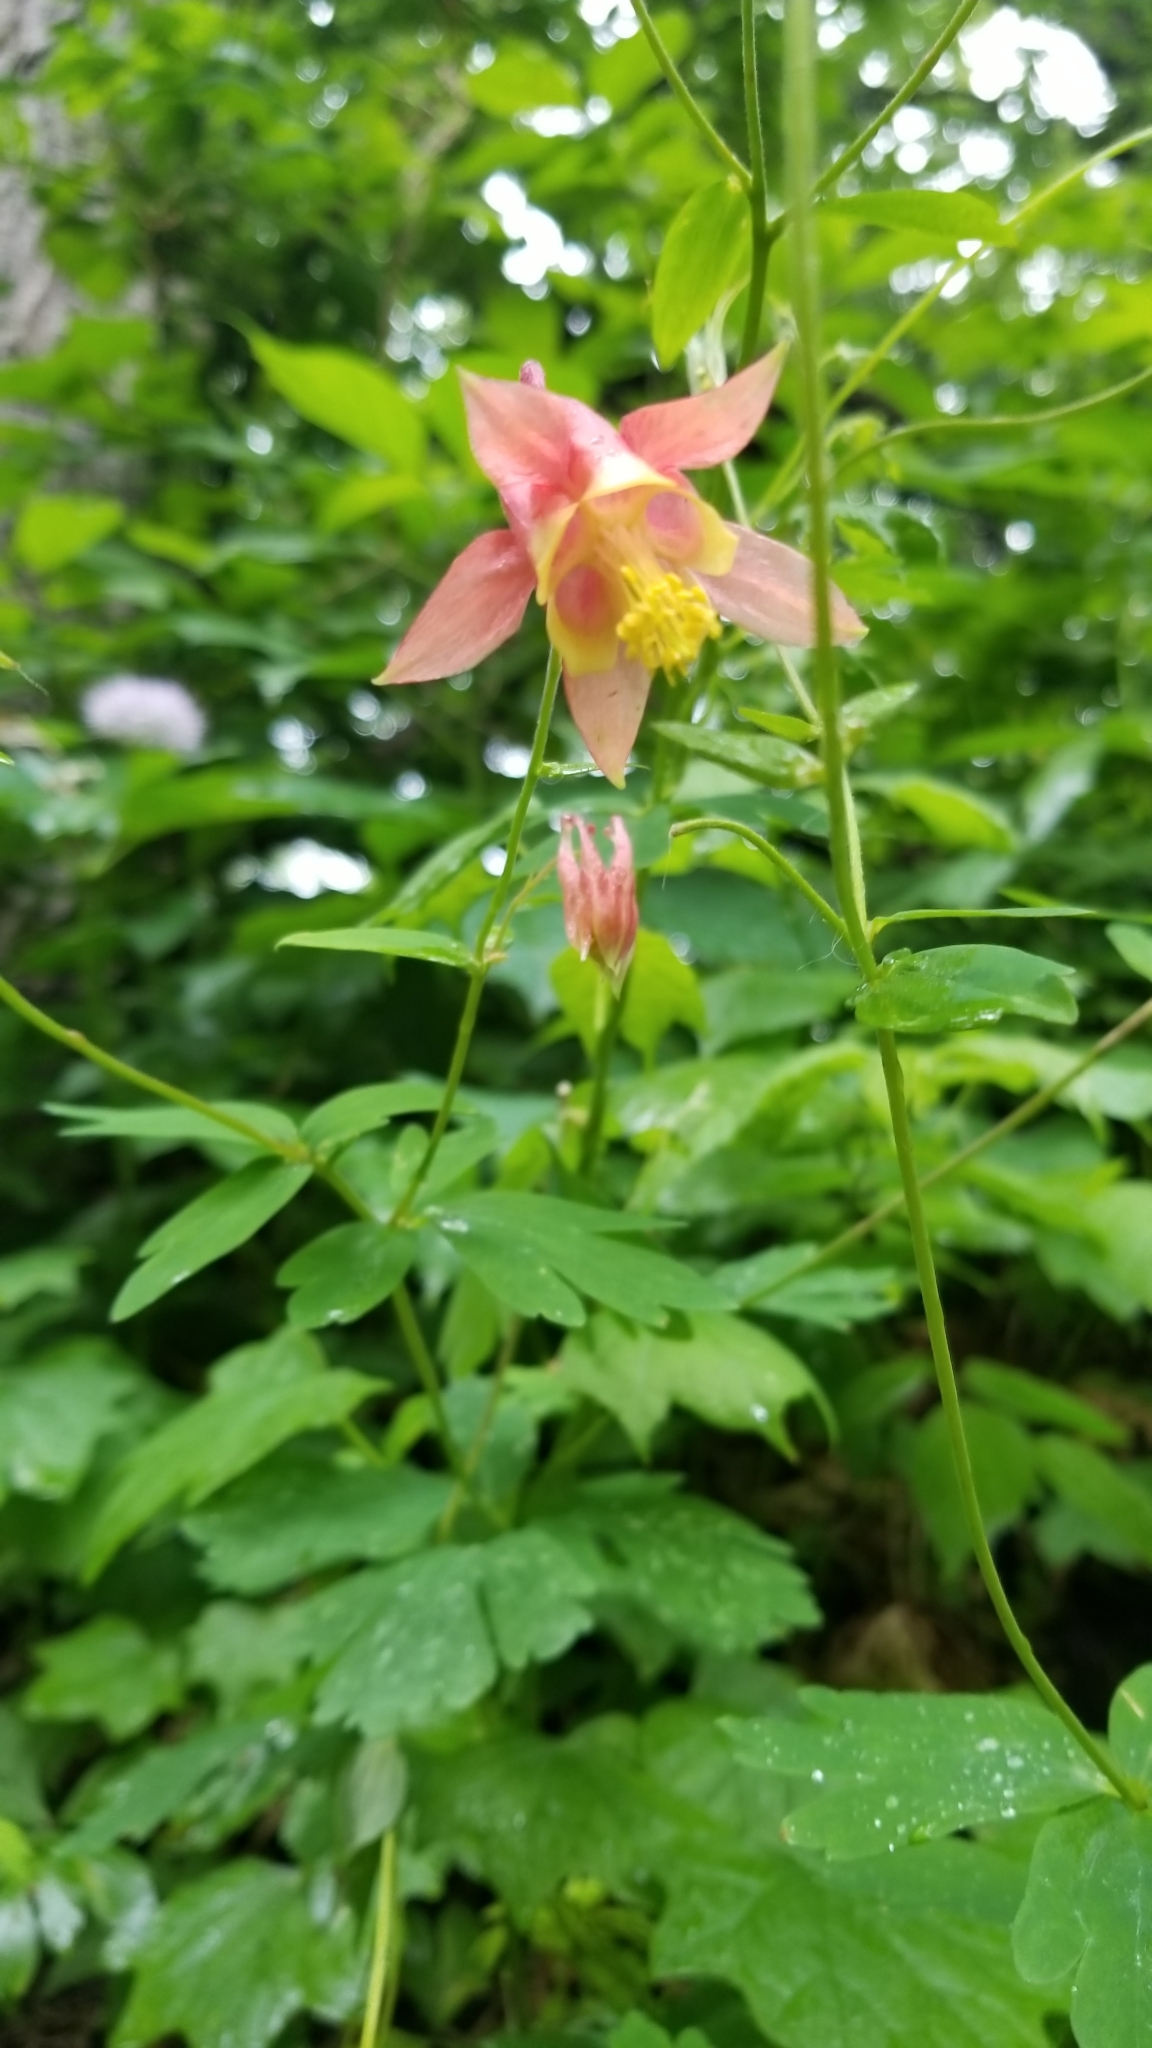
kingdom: Plantae
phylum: Tracheophyta
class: Magnoliopsida
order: Ranunculales
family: Ranunculaceae
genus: Aquilegia
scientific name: Aquilegia canadensis
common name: American columbine
